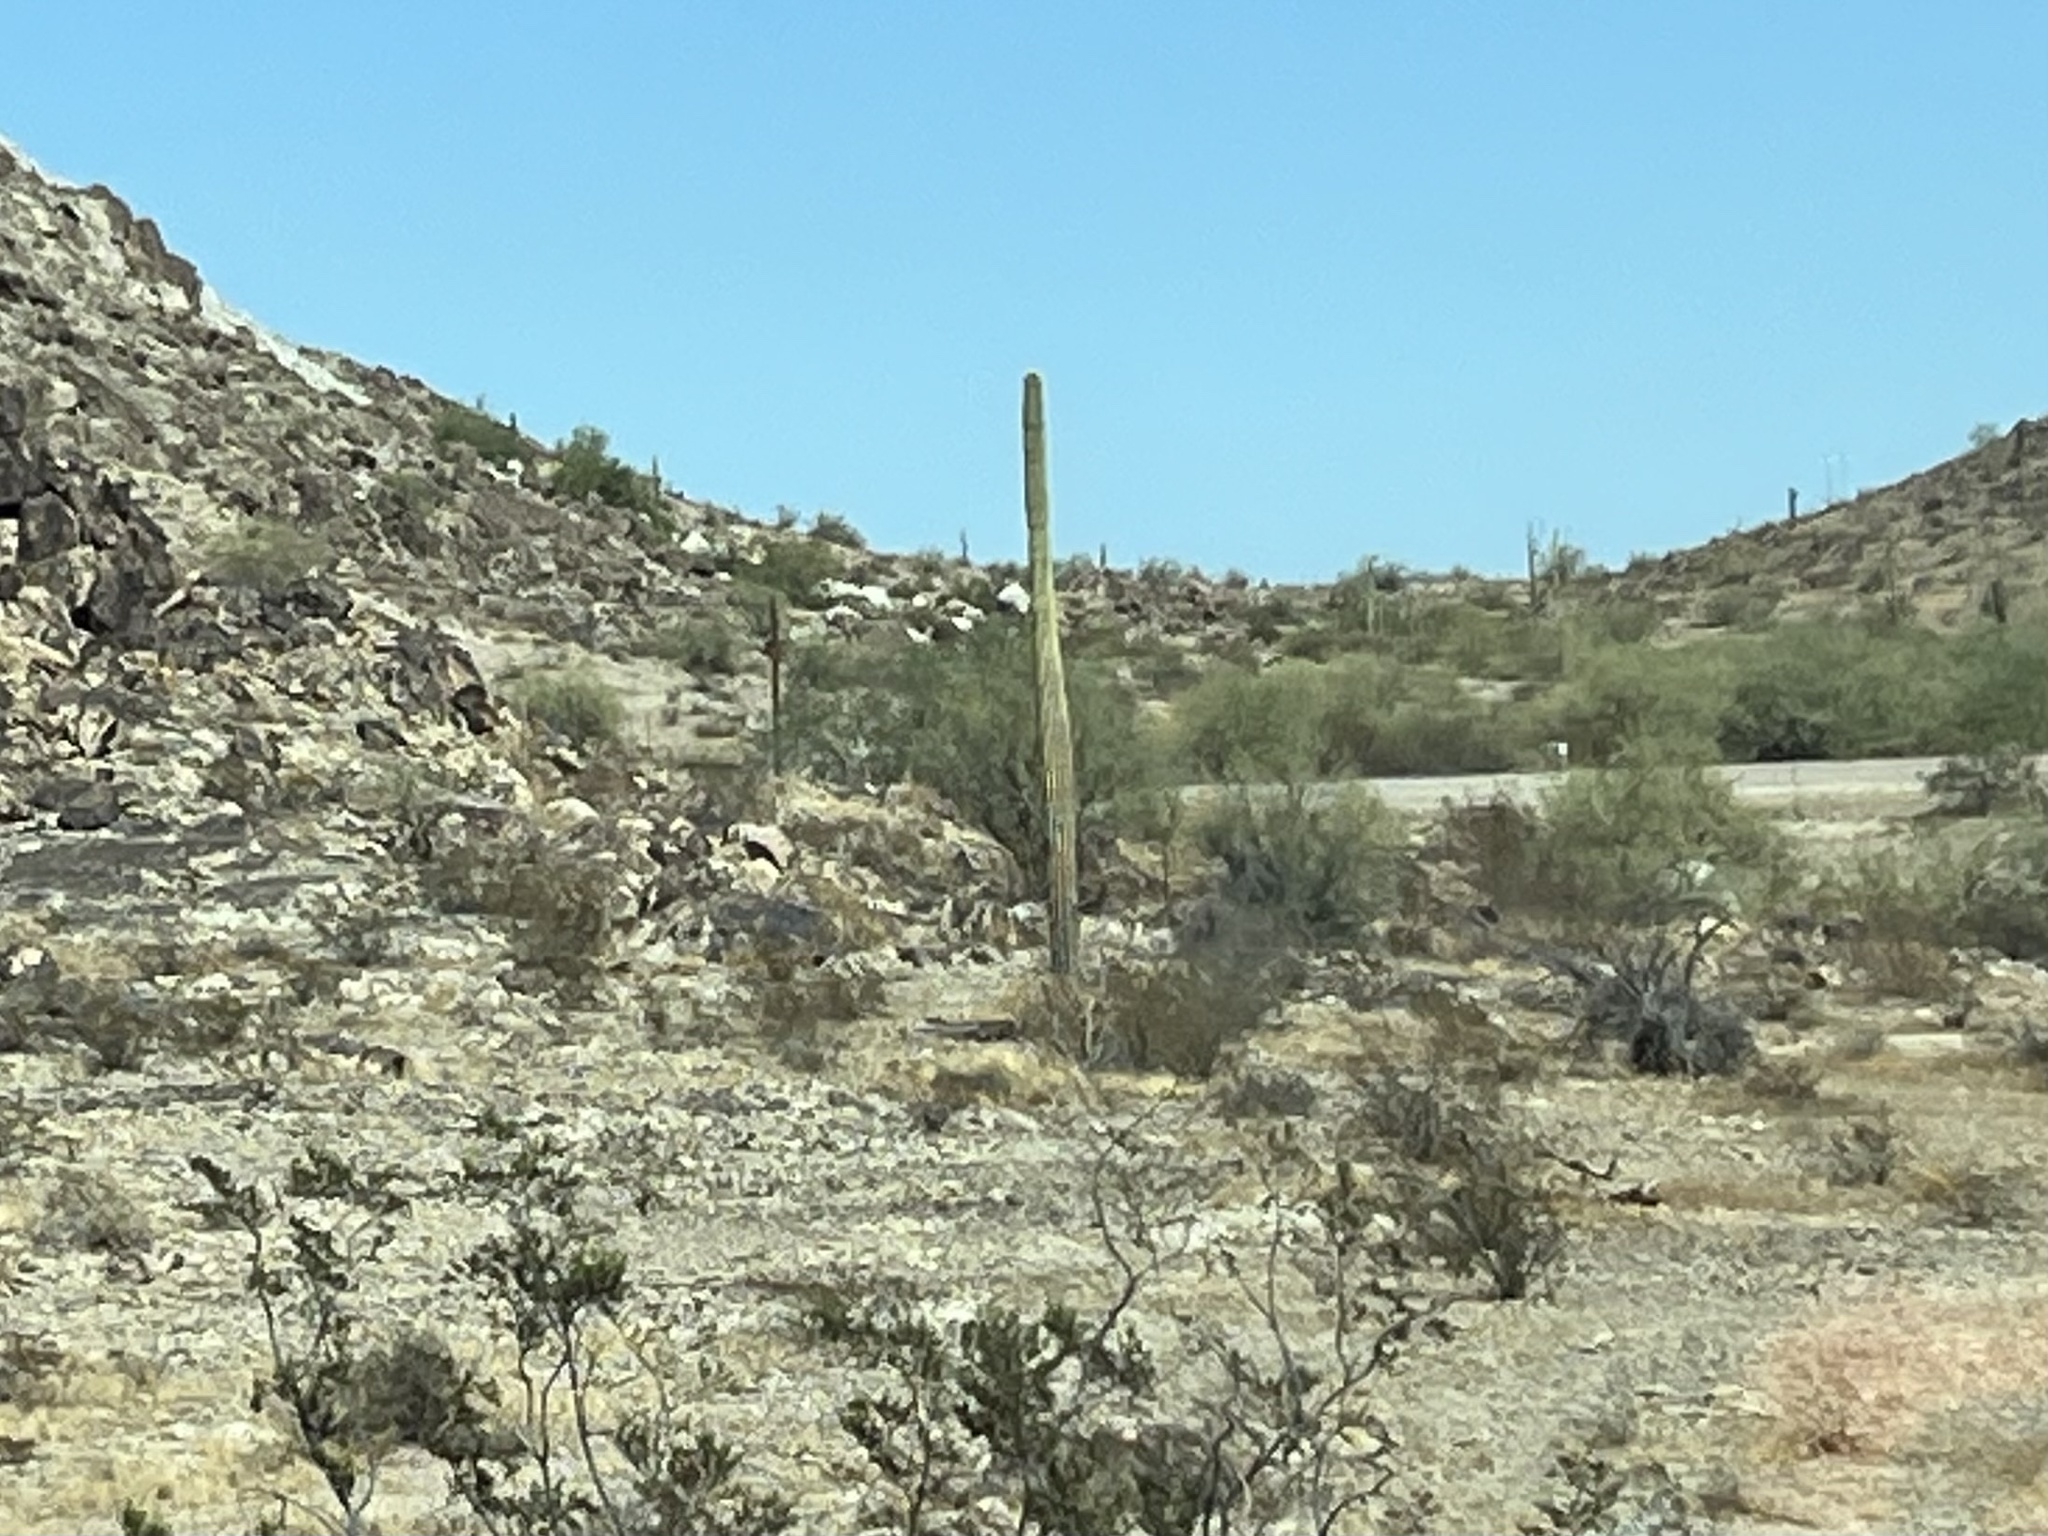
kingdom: Plantae
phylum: Tracheophyta
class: Magnoliopsida
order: Caryophyllales
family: Cactaceae
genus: Carnegiea
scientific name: Carnegiea gigantea
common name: Saguaro
